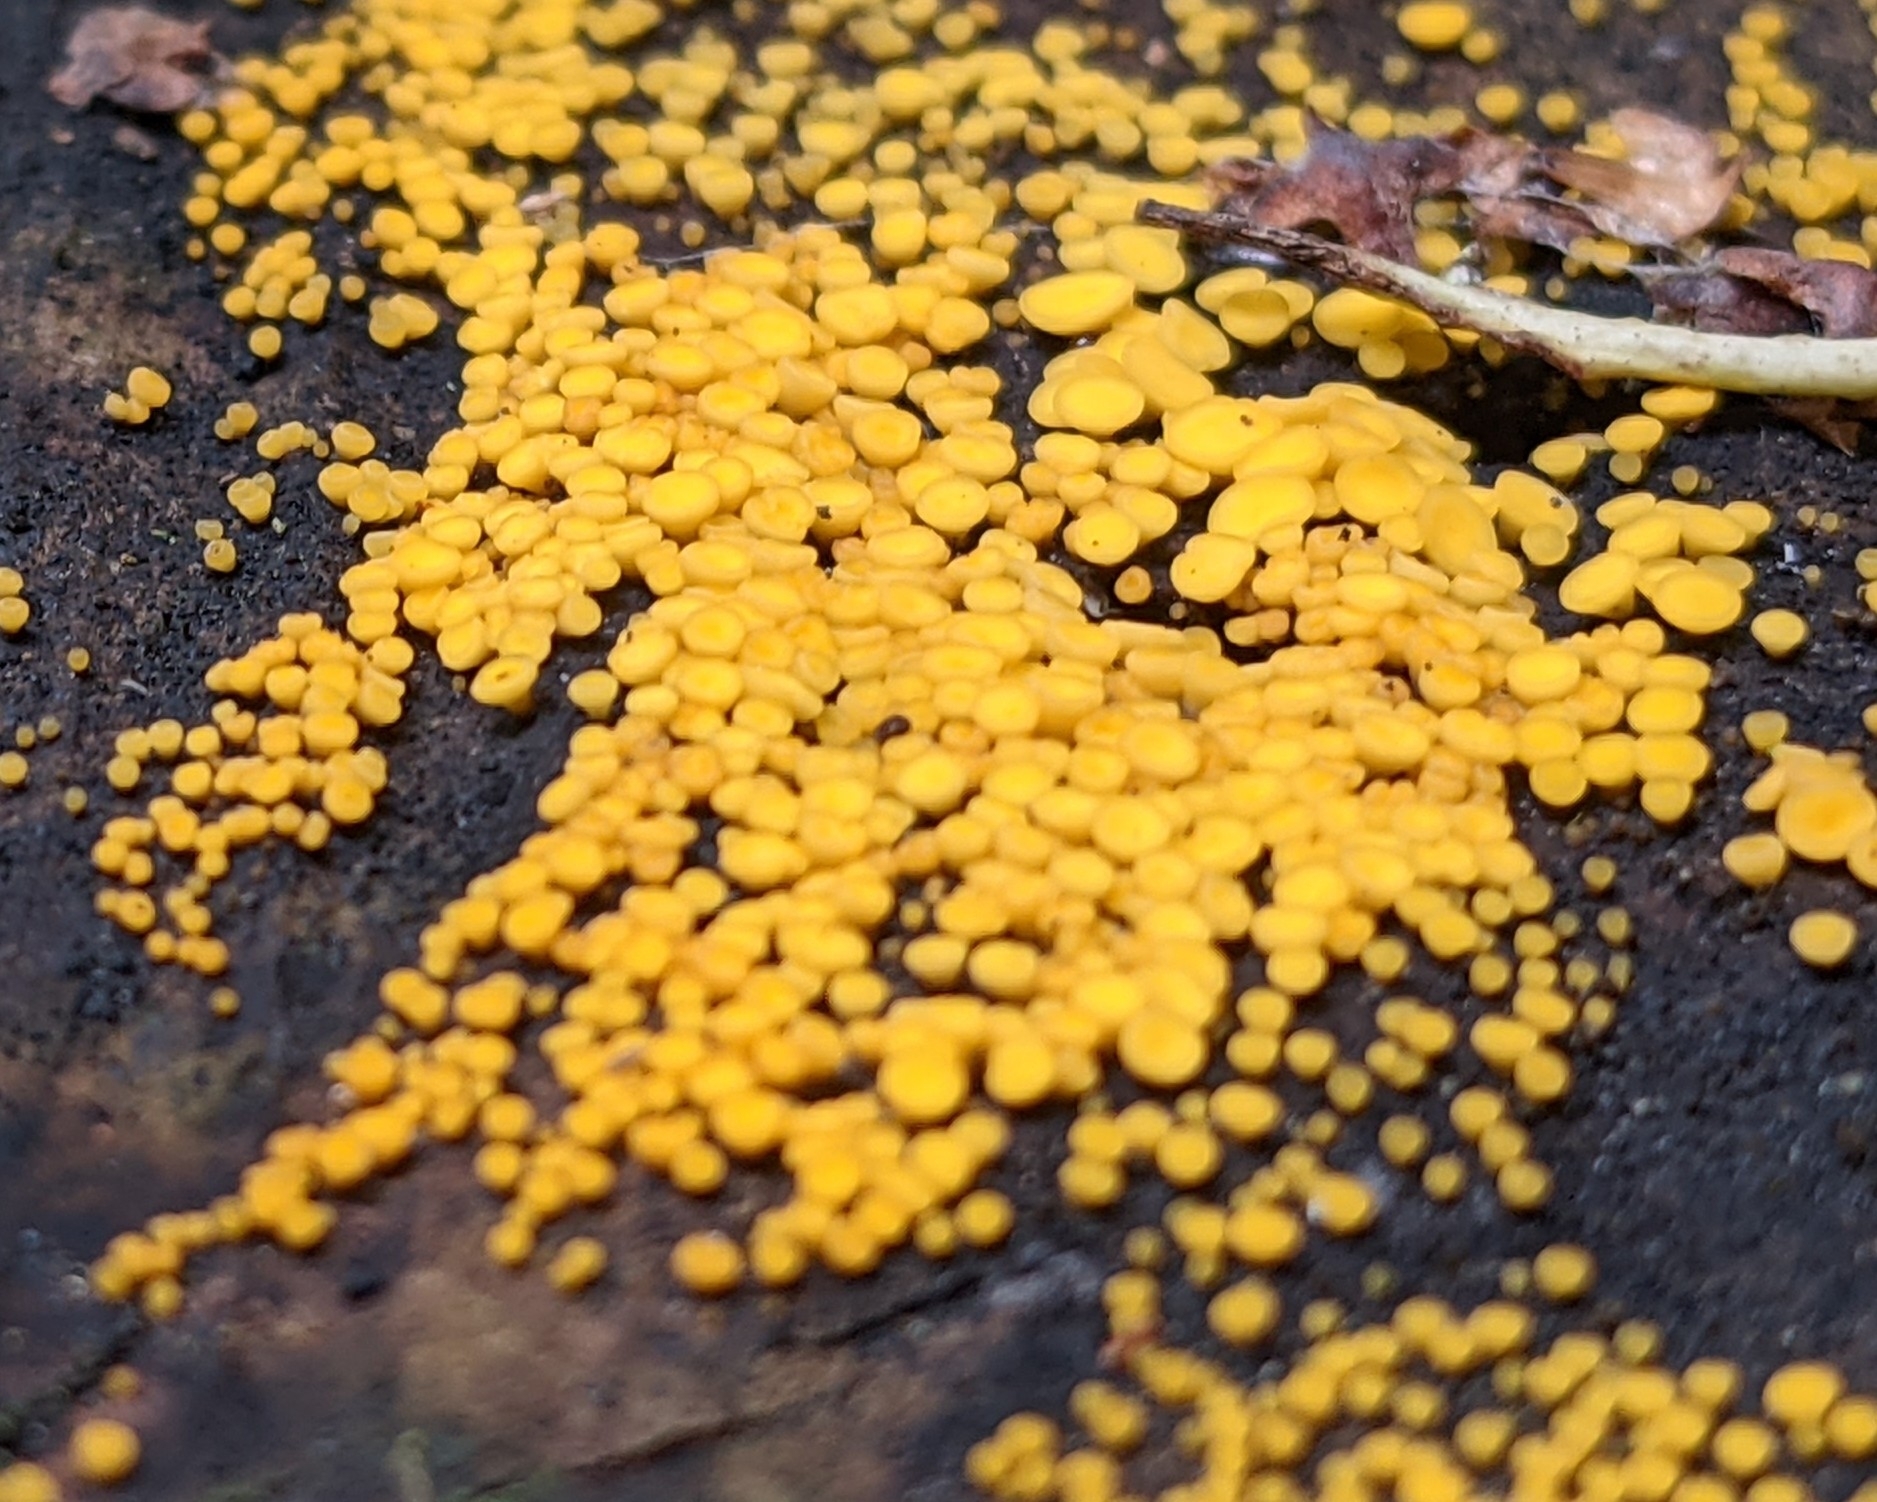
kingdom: Fungi
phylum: Ascomycota
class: Leotiomycetes
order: Helotiales
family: Pezizellaceae
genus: Calycina
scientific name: Calycina citrina
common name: Yellow fairy cups
